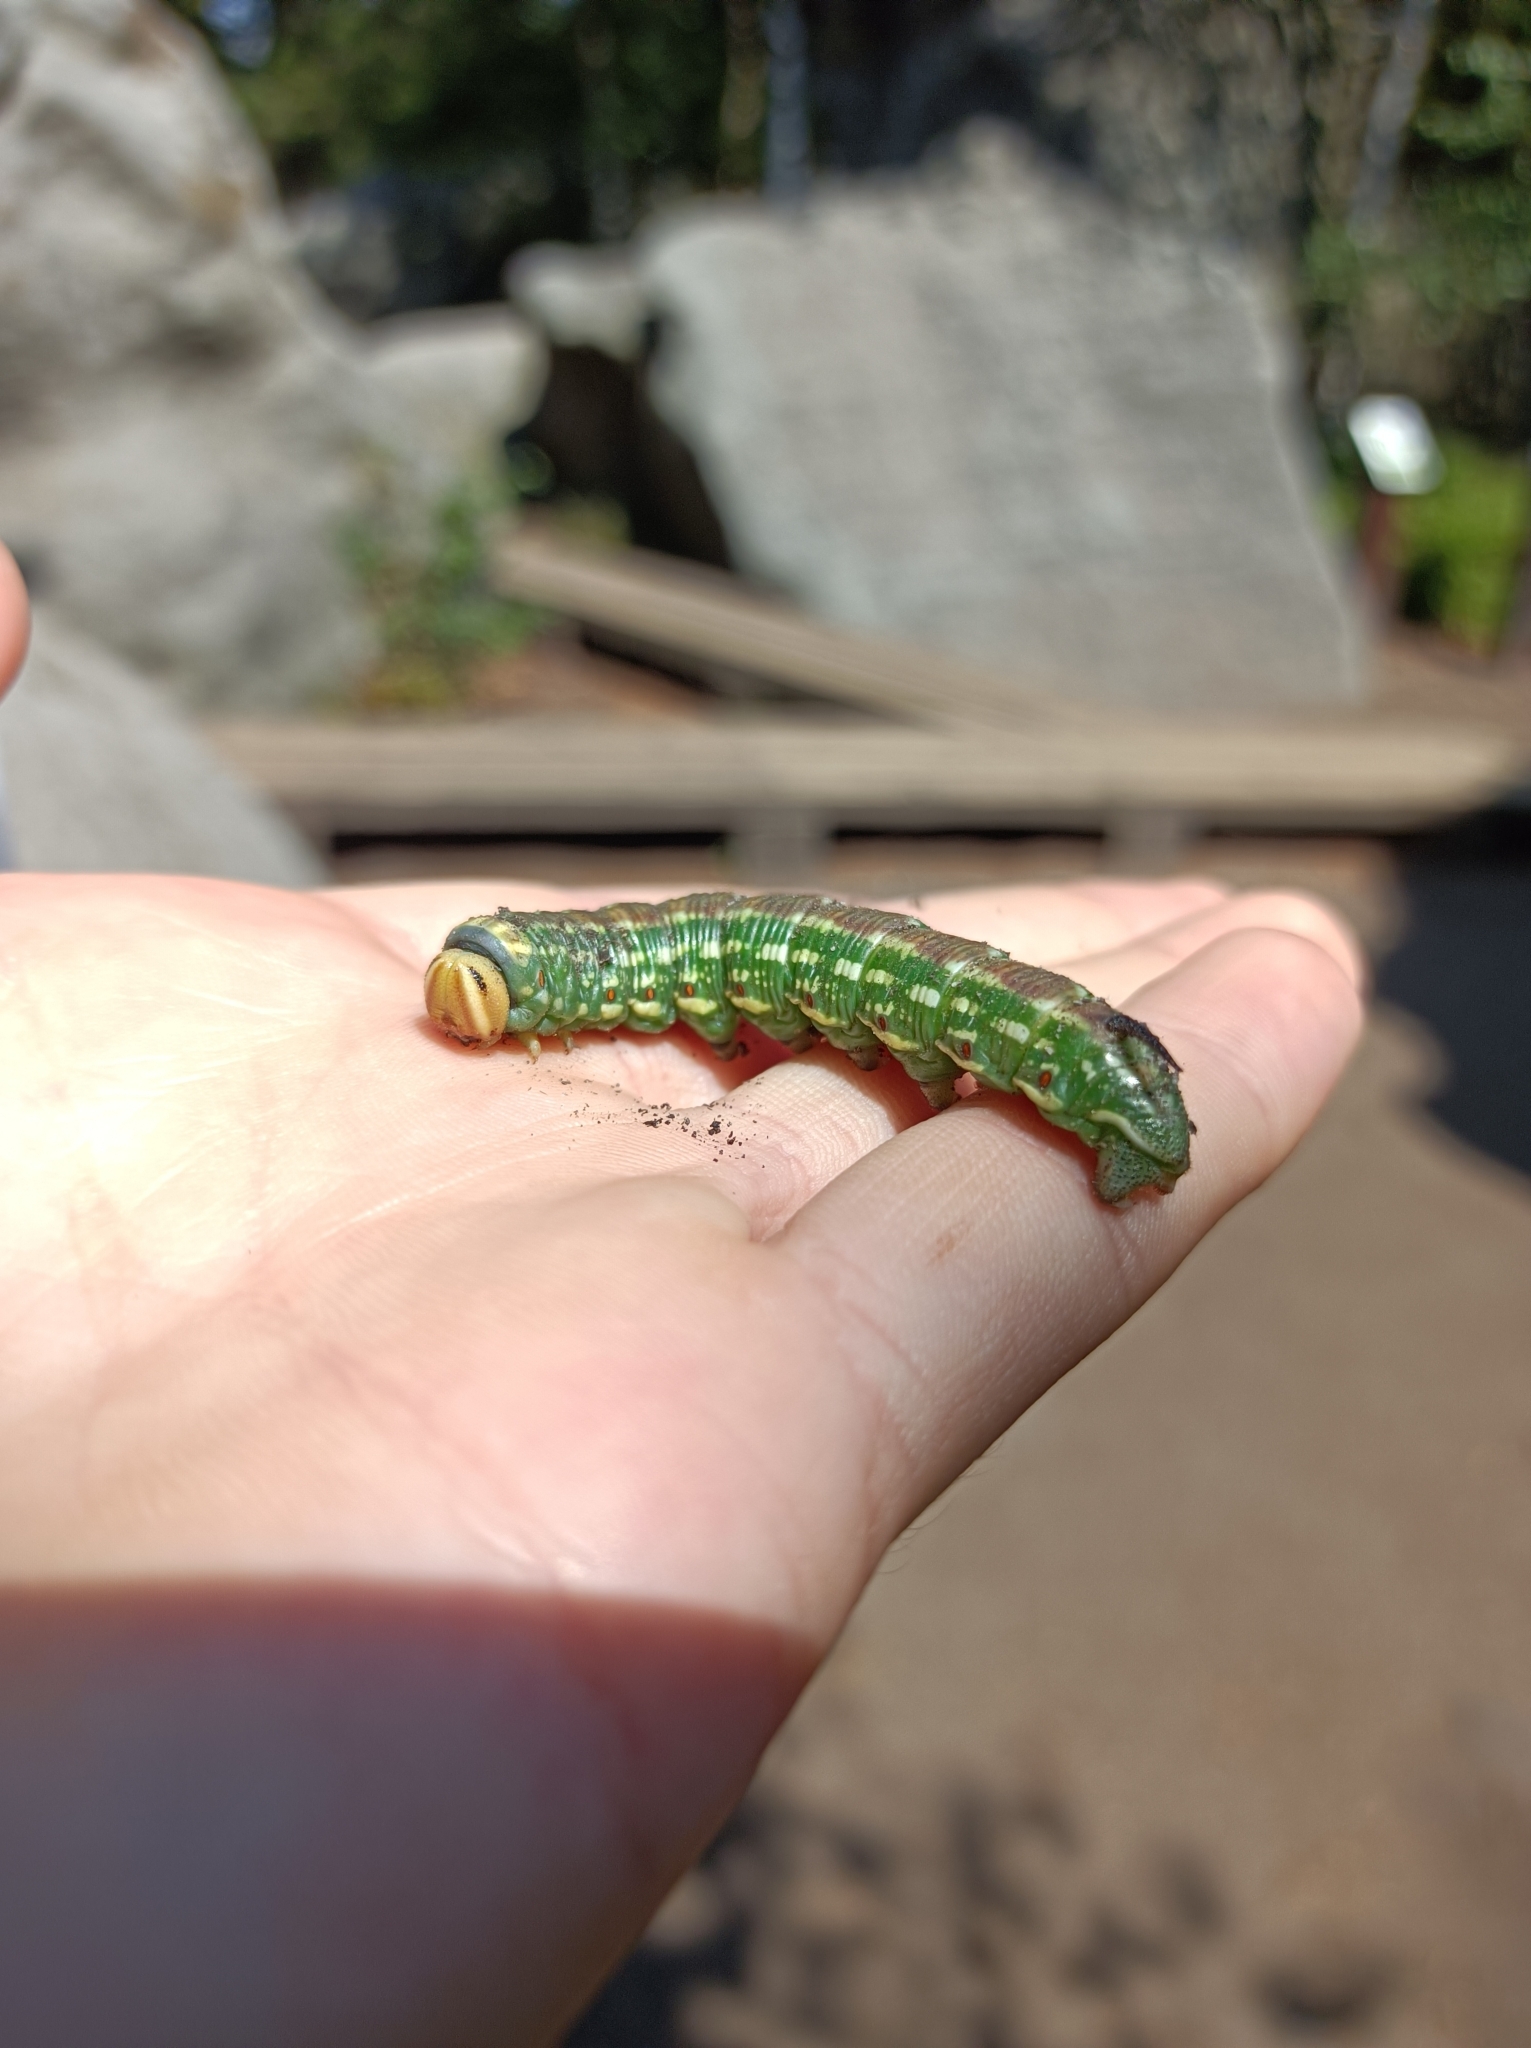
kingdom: Animalia
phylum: Arthropoda
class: Insecta
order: Lepidoptera
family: Sphingidae
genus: Sphinx
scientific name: Sphinx pinastri
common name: Pine hawk-moth
